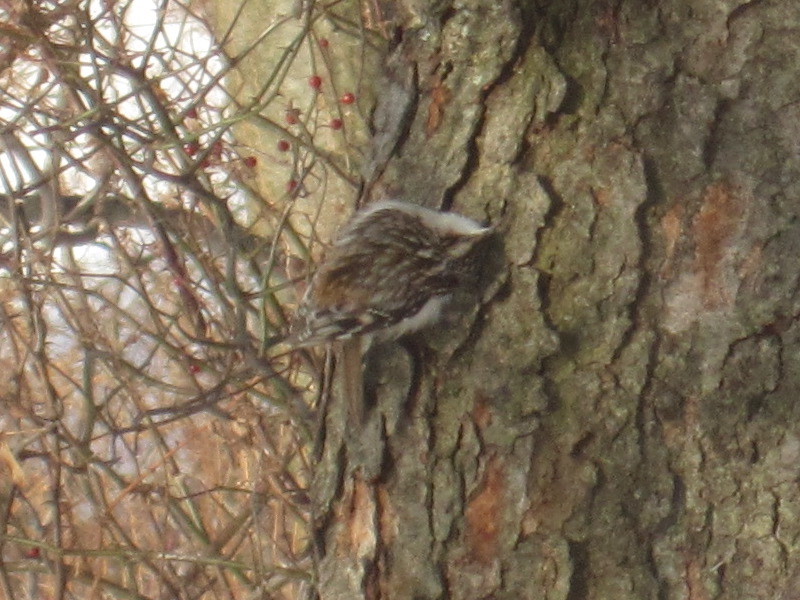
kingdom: Animalia
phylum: Chordata
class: Aves
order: Passeriformes
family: Certhiidae
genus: Certhia
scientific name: Certhia americana
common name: Brown creeper
